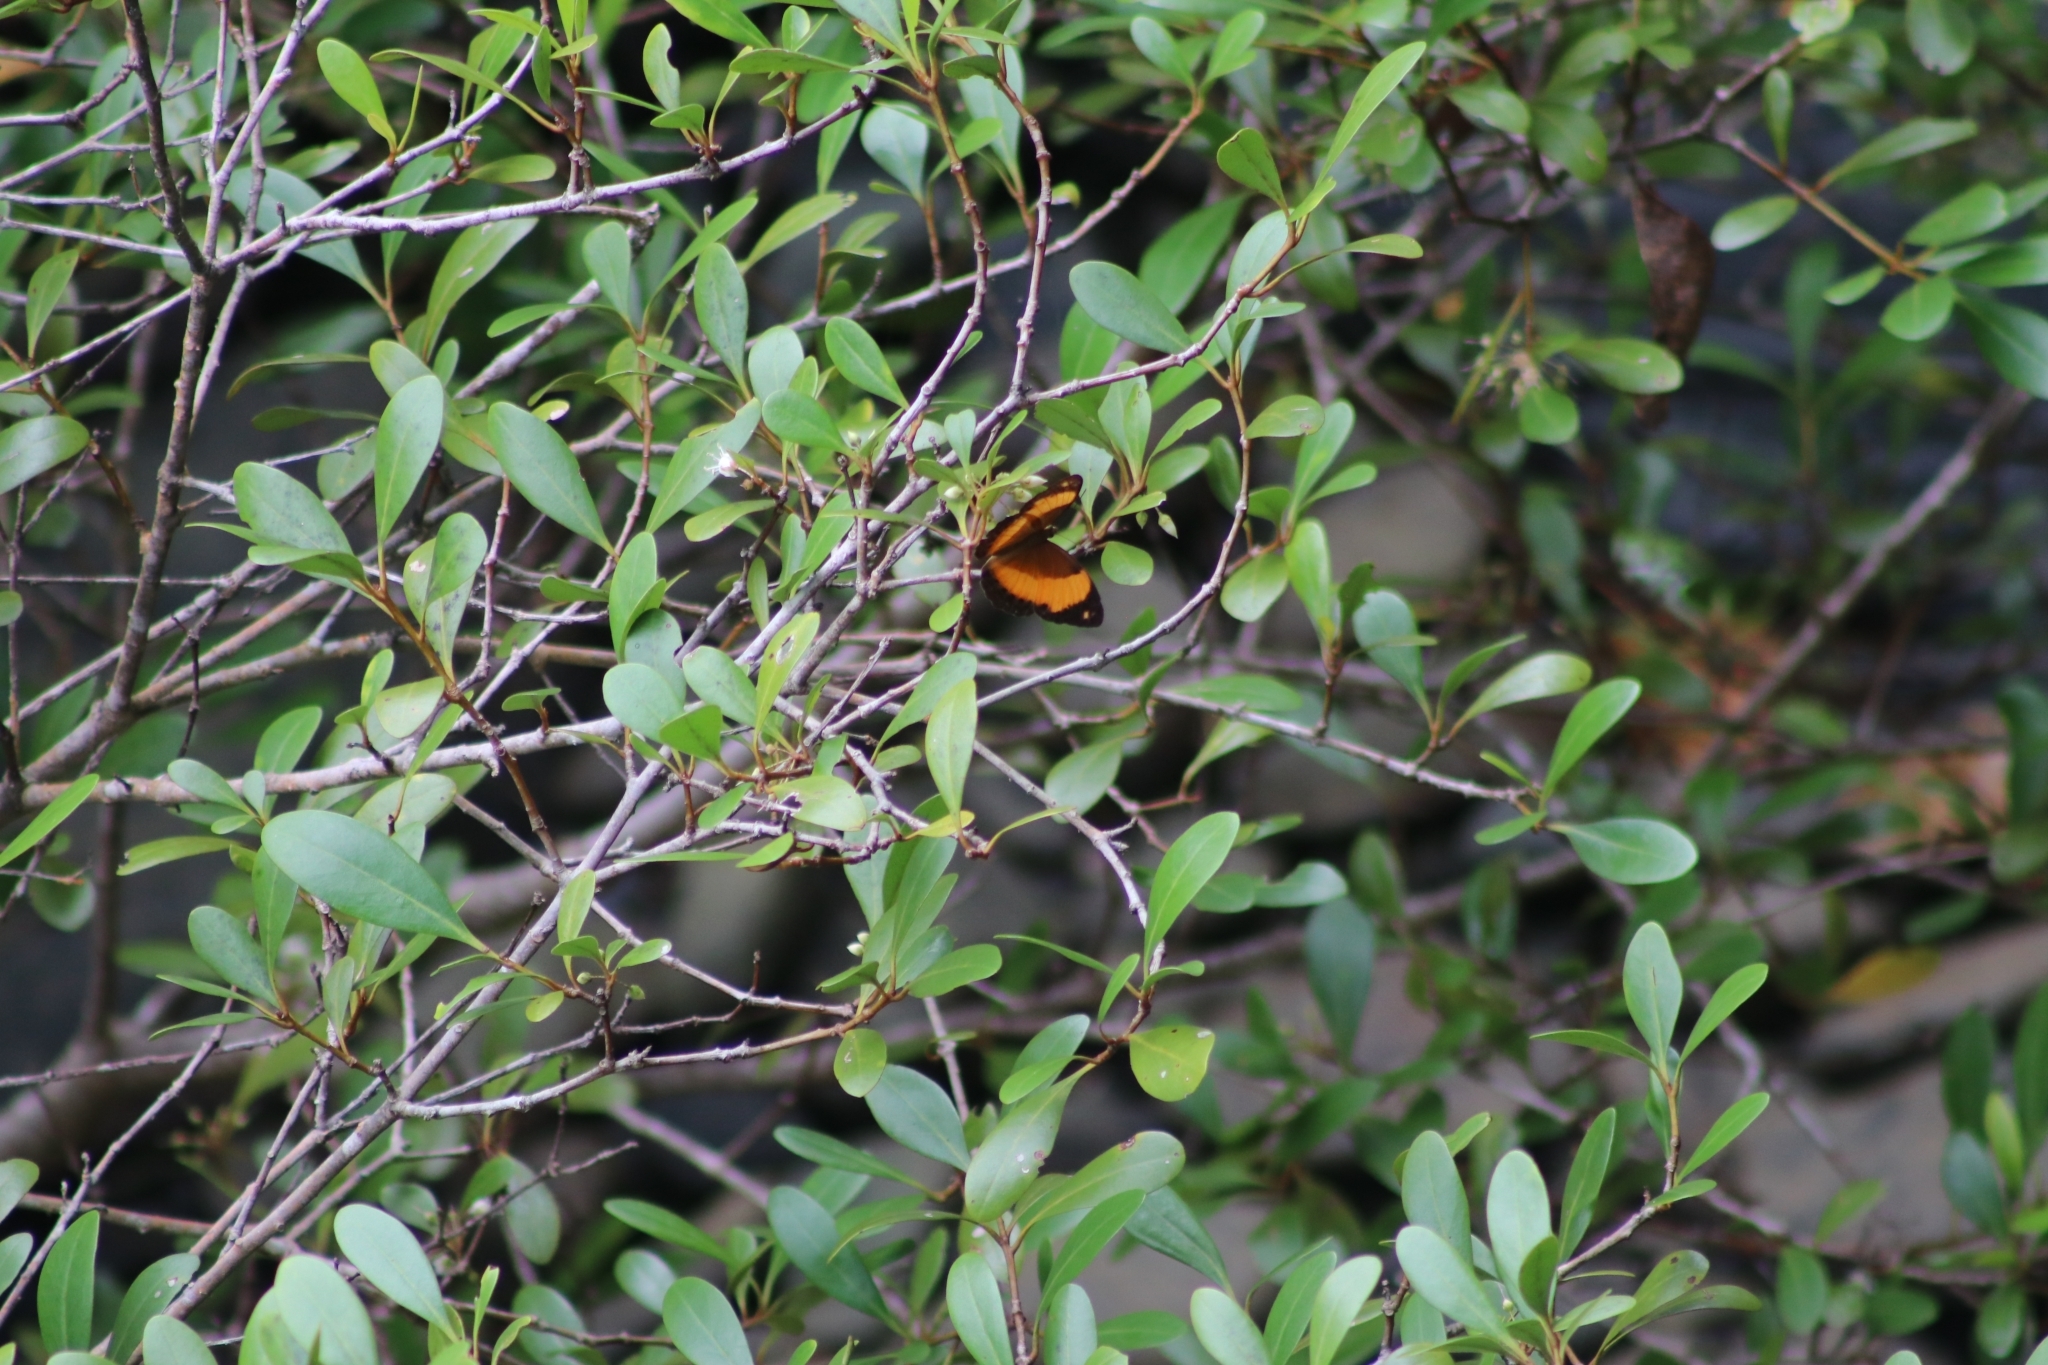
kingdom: Animalia
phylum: Arthropoda
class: Insecta
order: Lepidoptera
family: Nymphalidae
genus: Cupha
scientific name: Cupha prosope
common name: Bordered rustic
